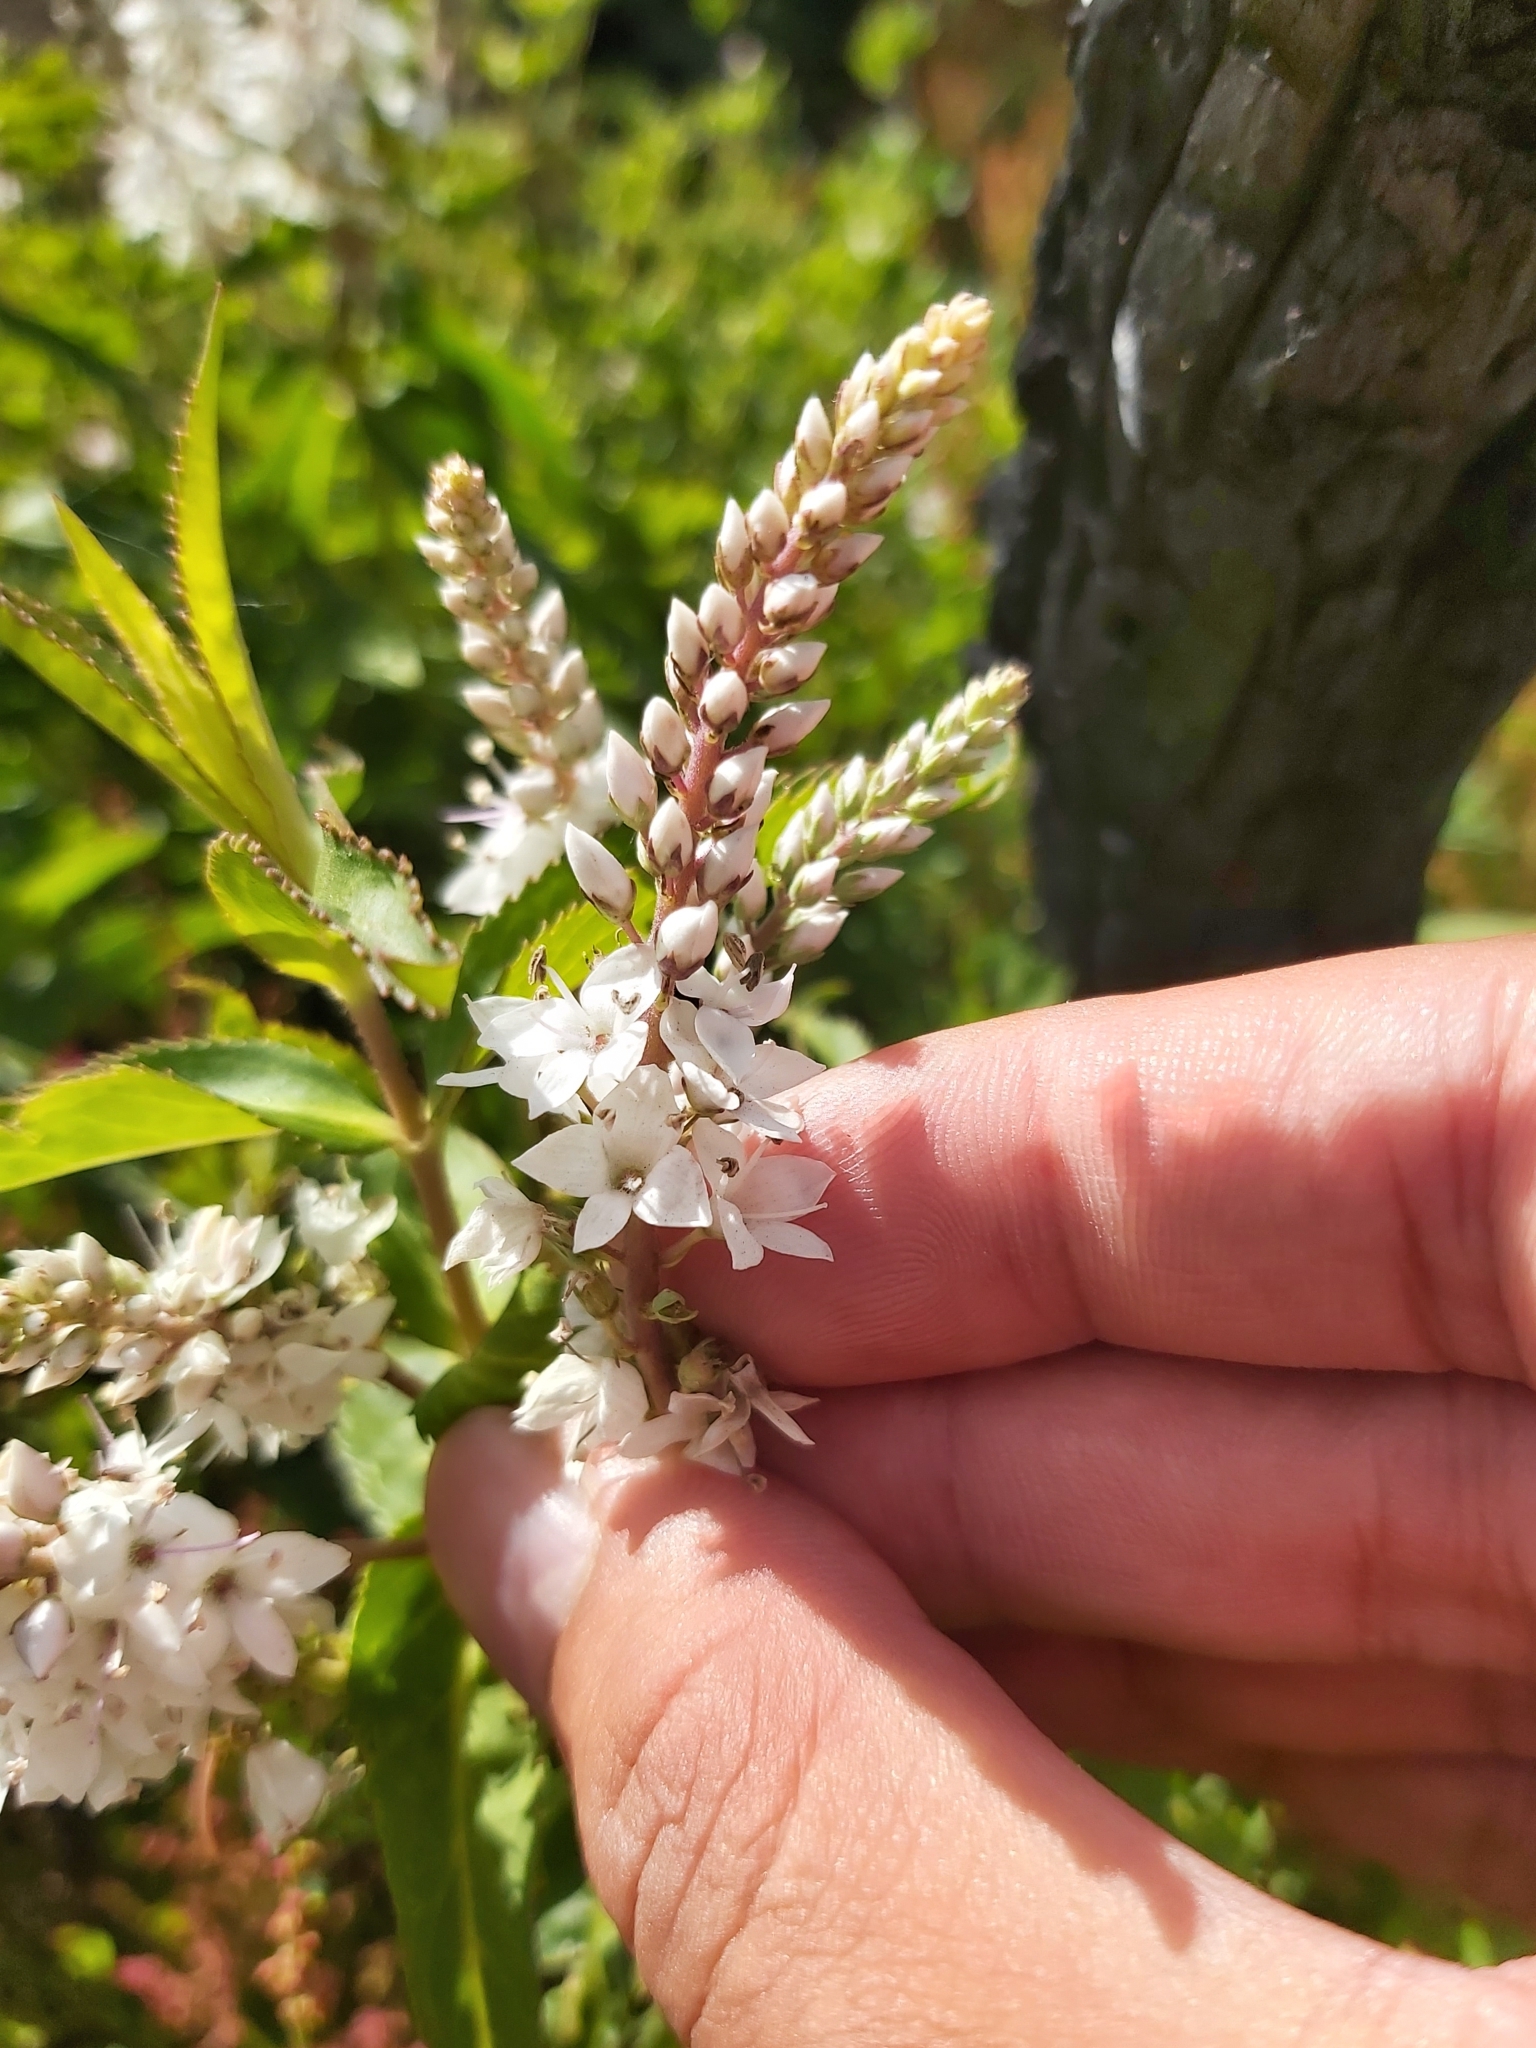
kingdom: Plantae
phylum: Tracheophyta
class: Magnoliopsida
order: Lamiales
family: Plantaginaceae
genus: Veronica
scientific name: Veronica derwentiana
